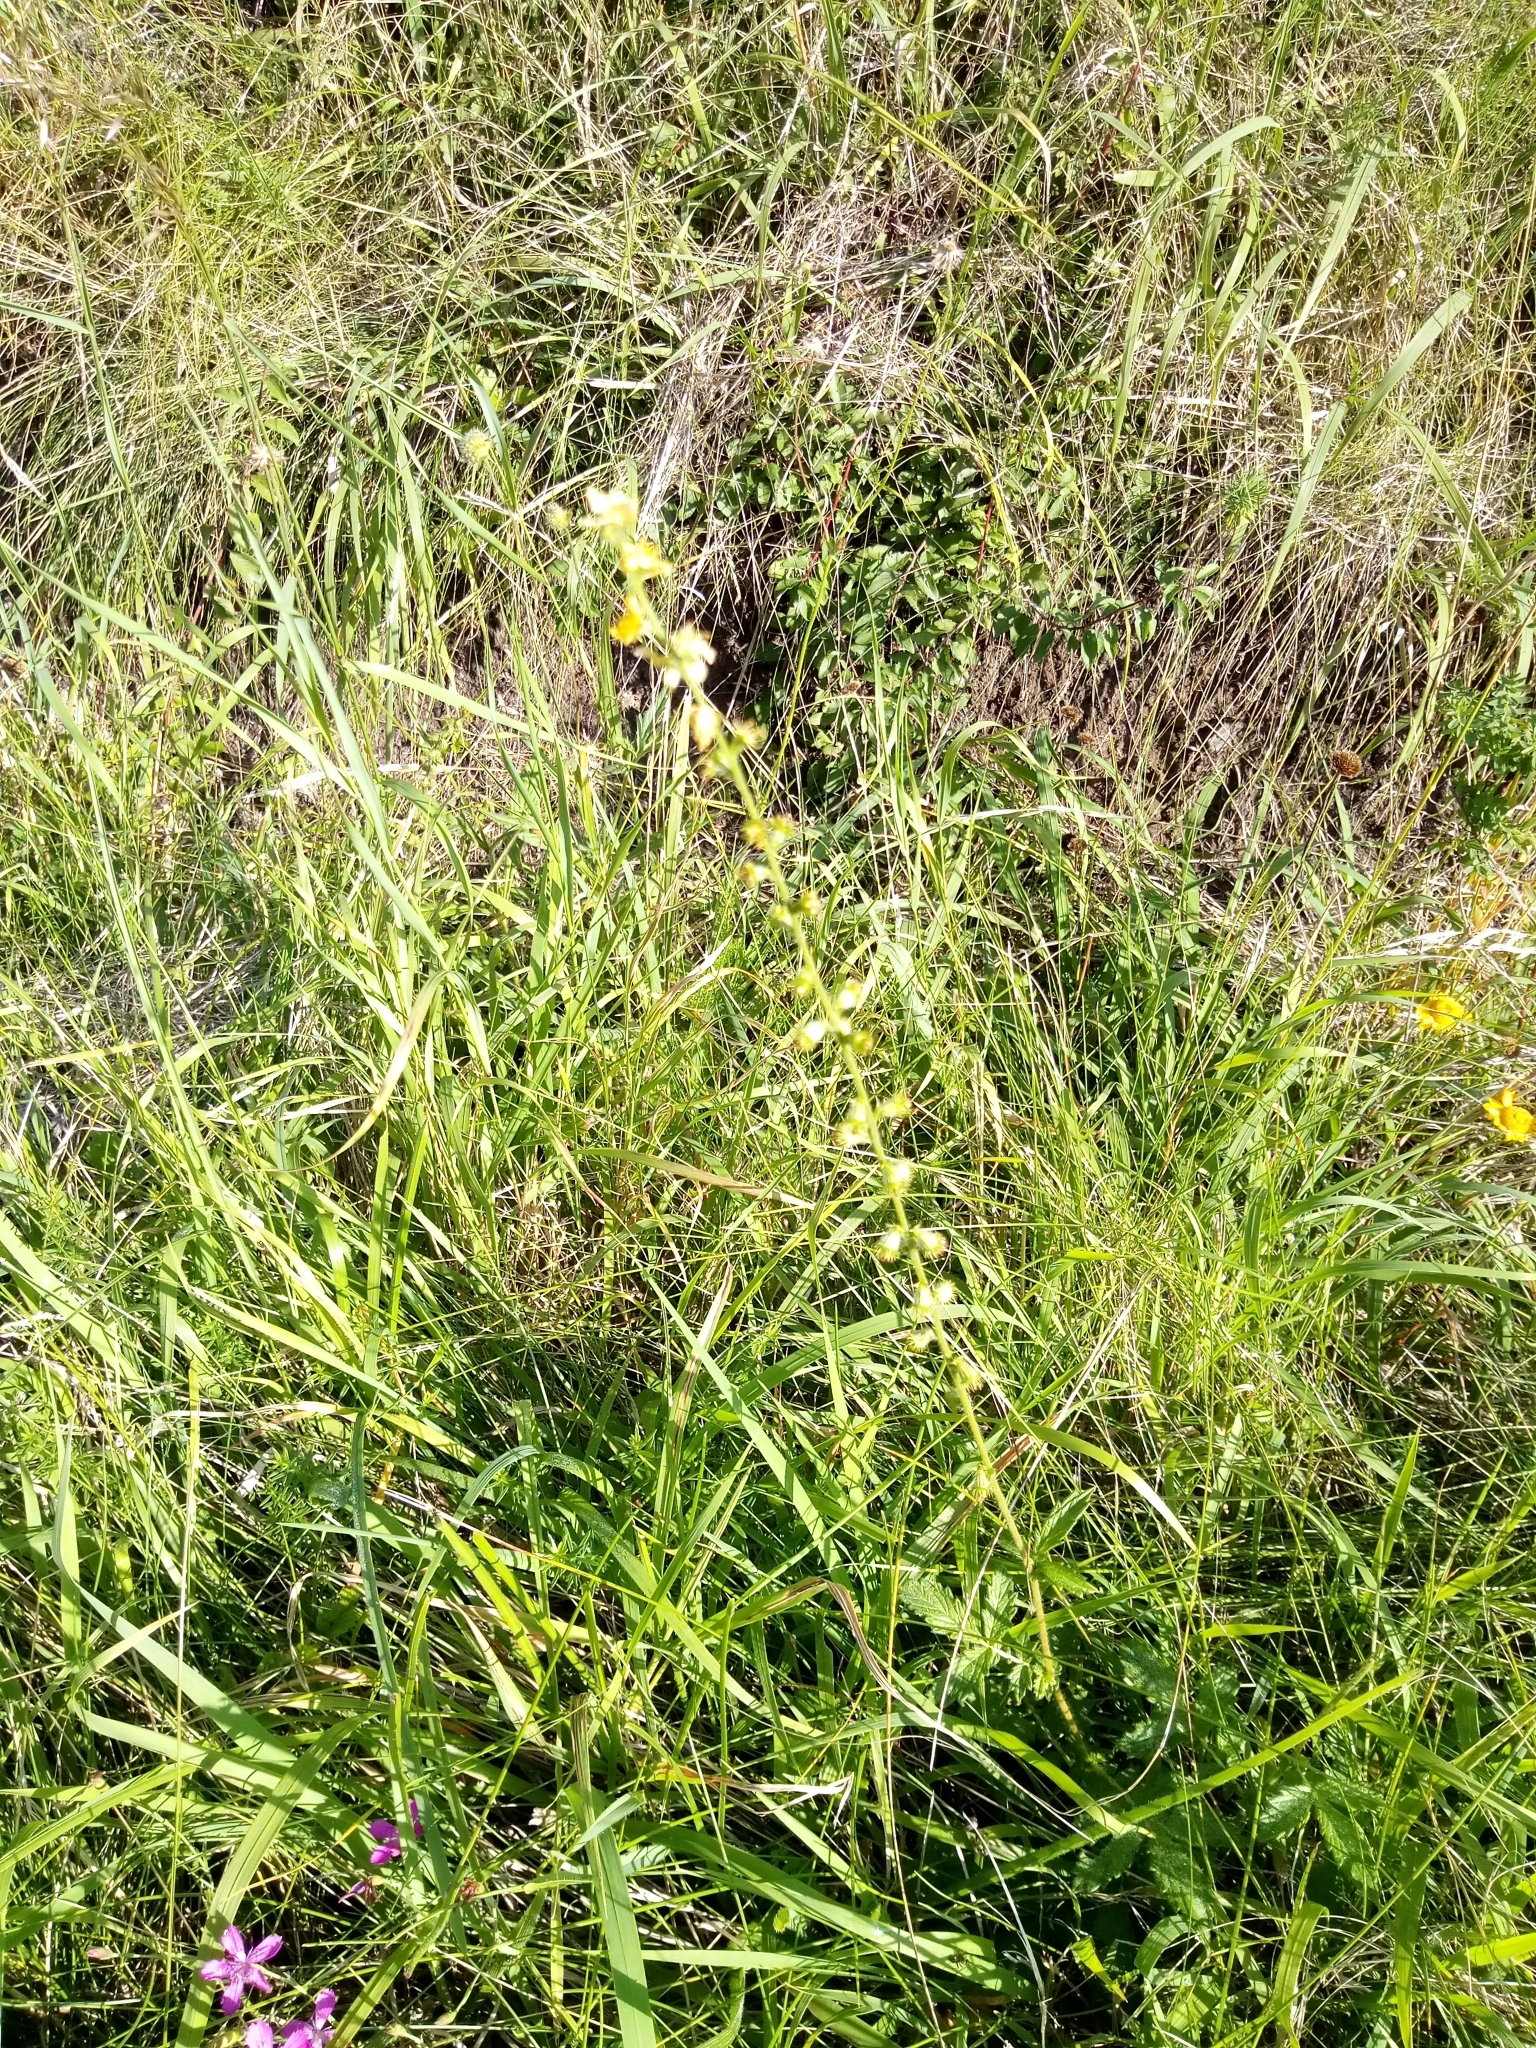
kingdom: Plantae
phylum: Tracheophyta
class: Magnoliopsida
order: Rosales
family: Rosaceae
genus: Agrimonia
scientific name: Agrimonia eupatoria
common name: Agrimony
